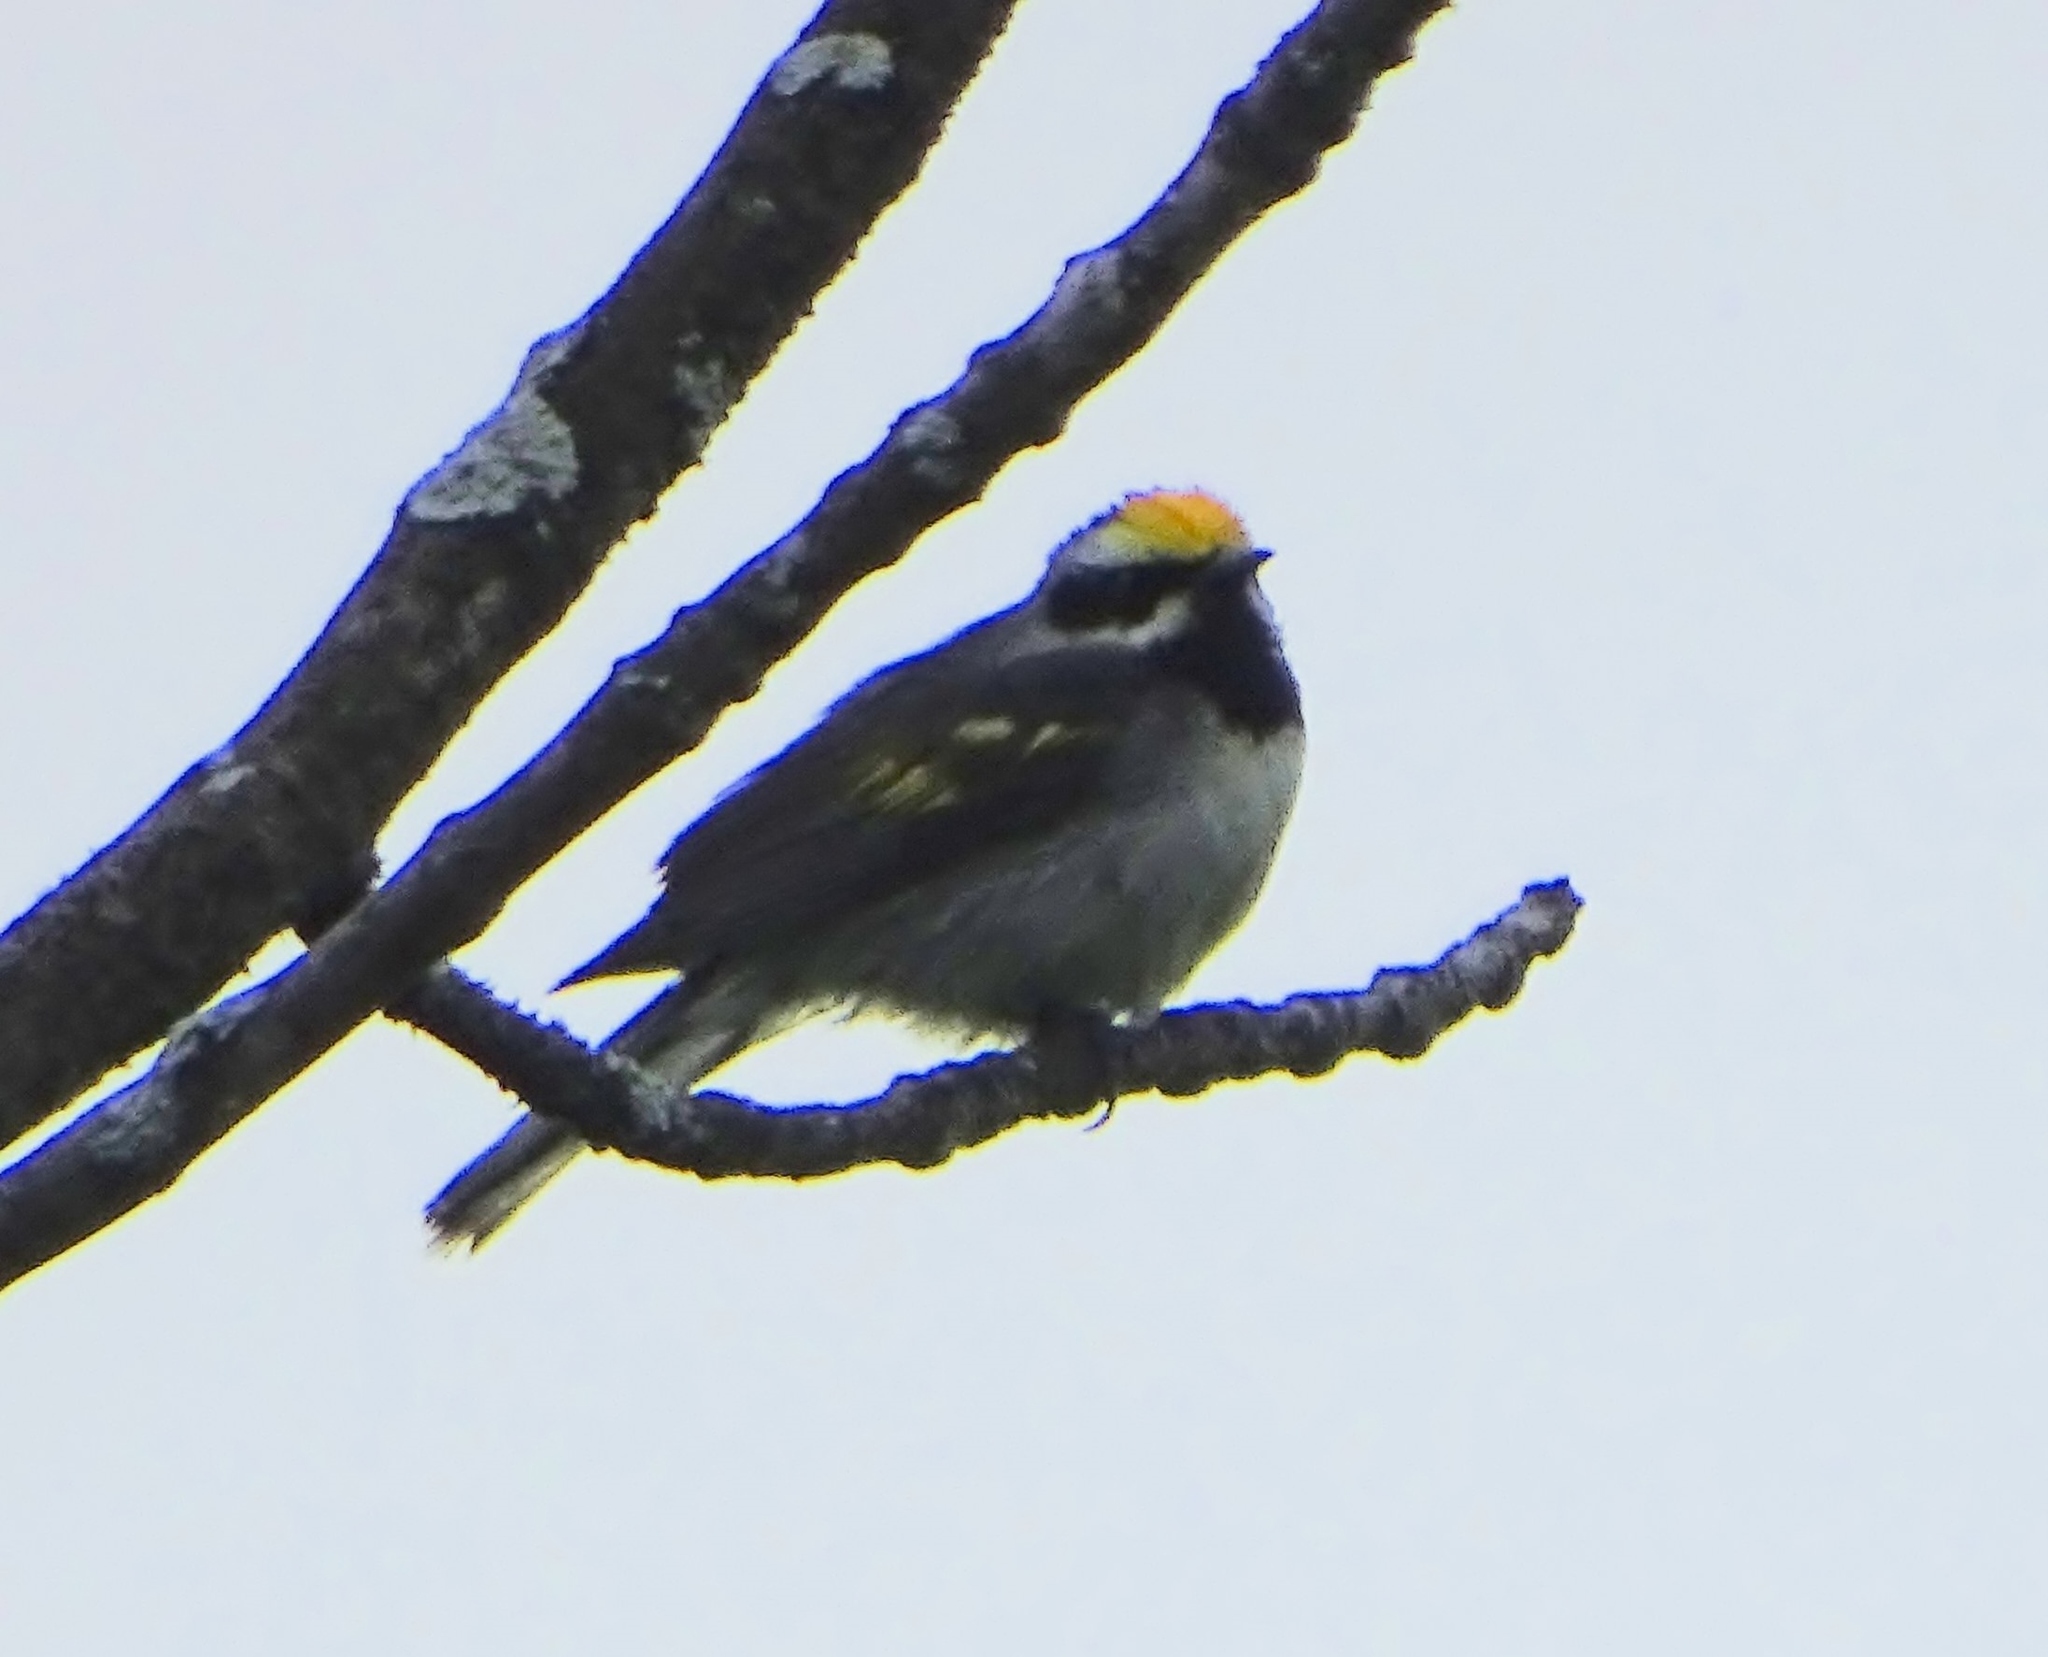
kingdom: Animalia
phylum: Chordata
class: Aves
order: Passeriformes
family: Parulidae
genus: Vermivora
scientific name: Vermivora chrysoptera
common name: Golden-winged warbler
